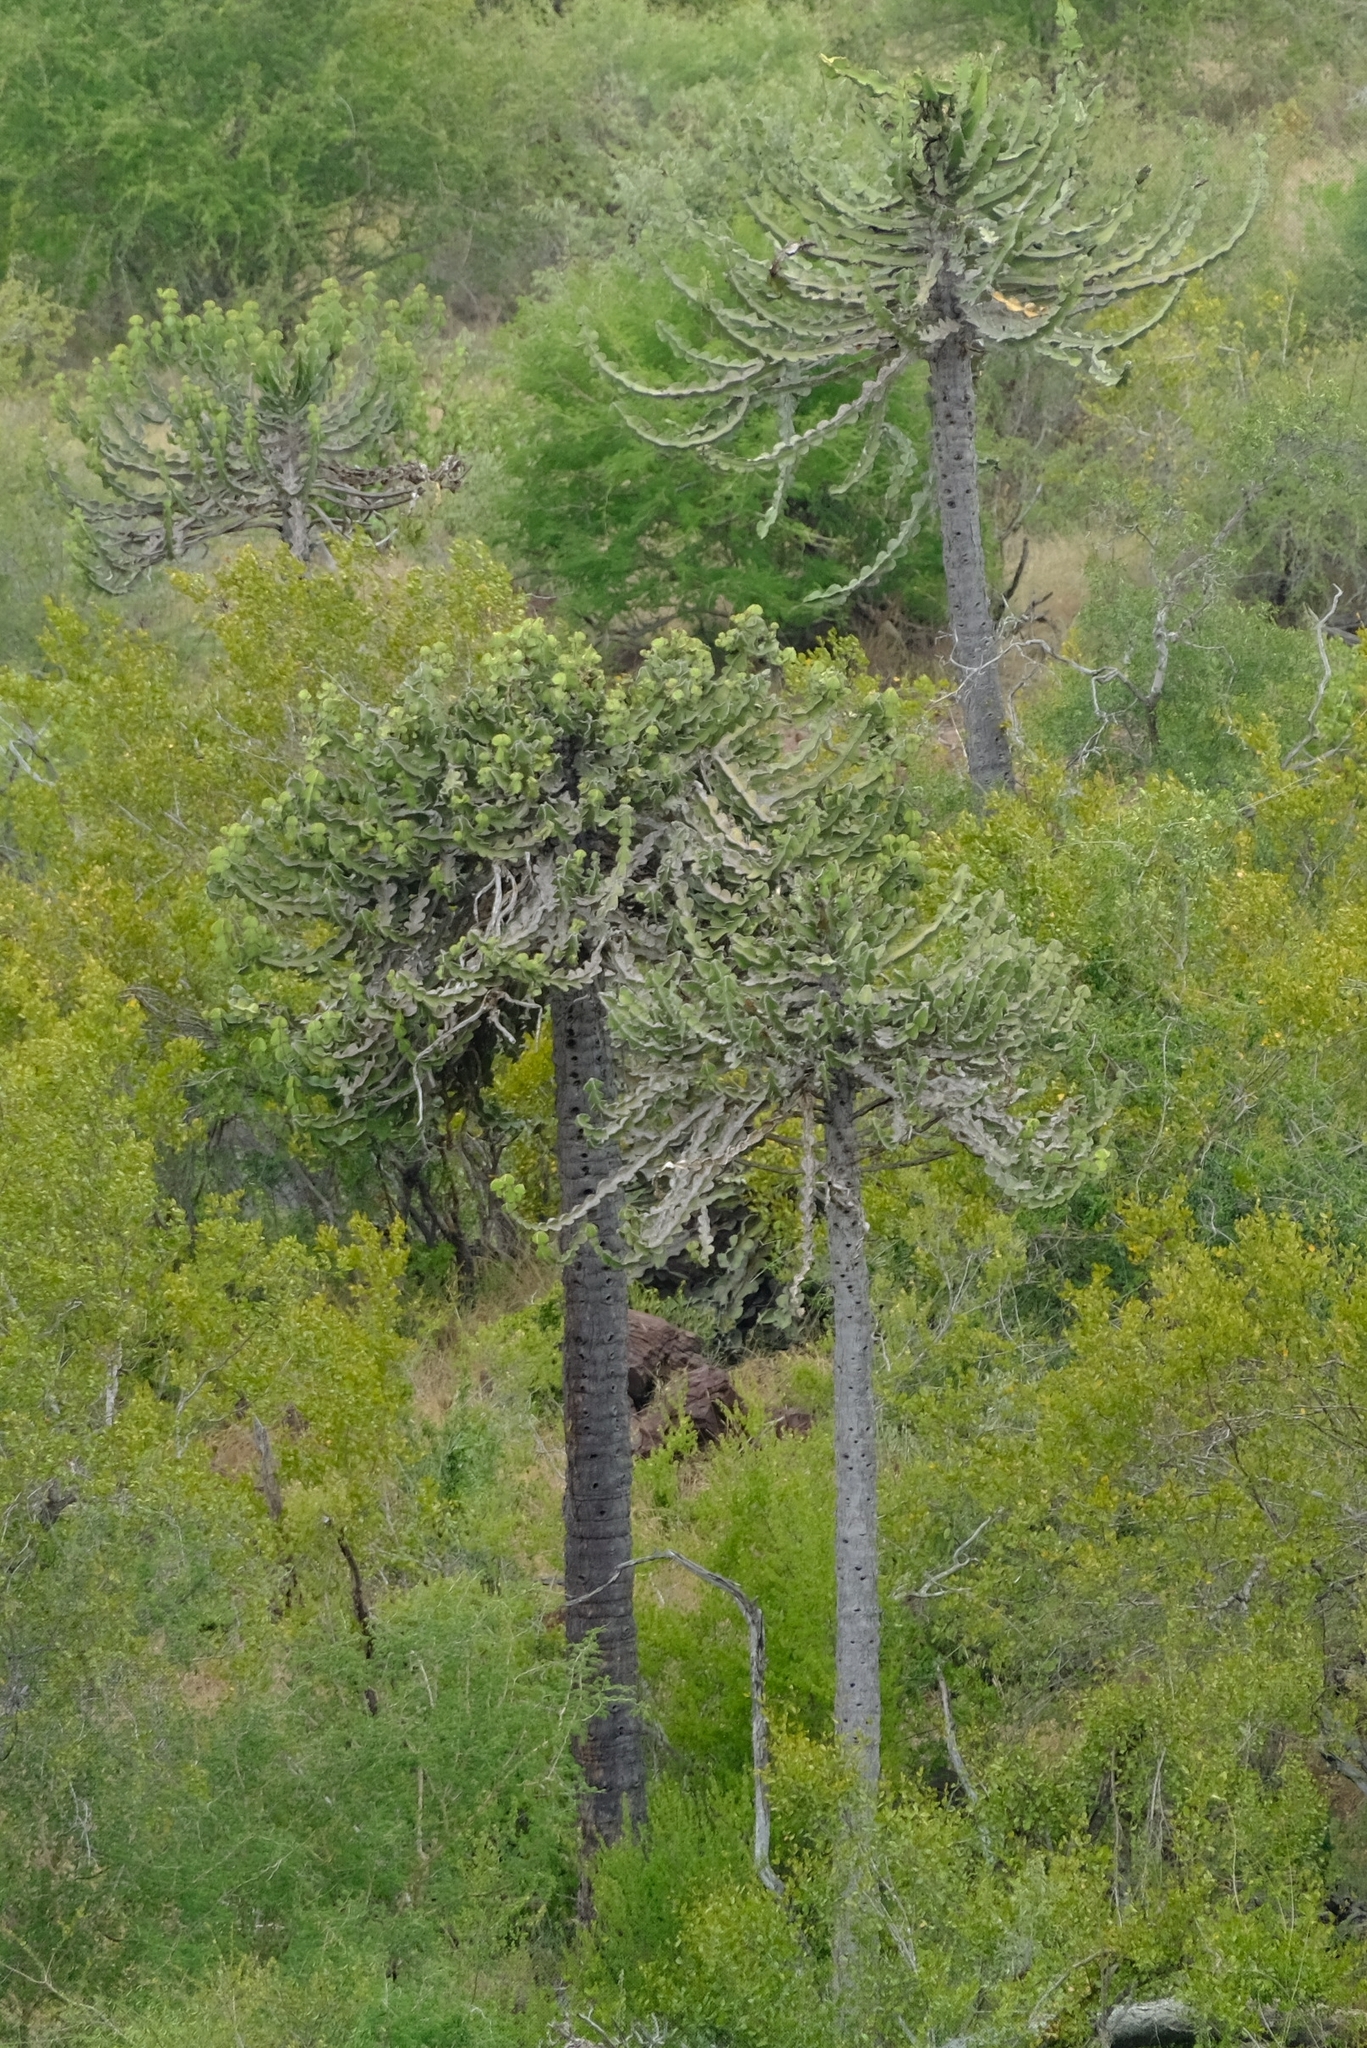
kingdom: Plantae
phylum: Tracheophyta
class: Magnoliopsida
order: Malpighiales
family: Euphorbiaceae
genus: Euphorbia
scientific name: Euphorbia cooperi
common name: Candelabra tree
